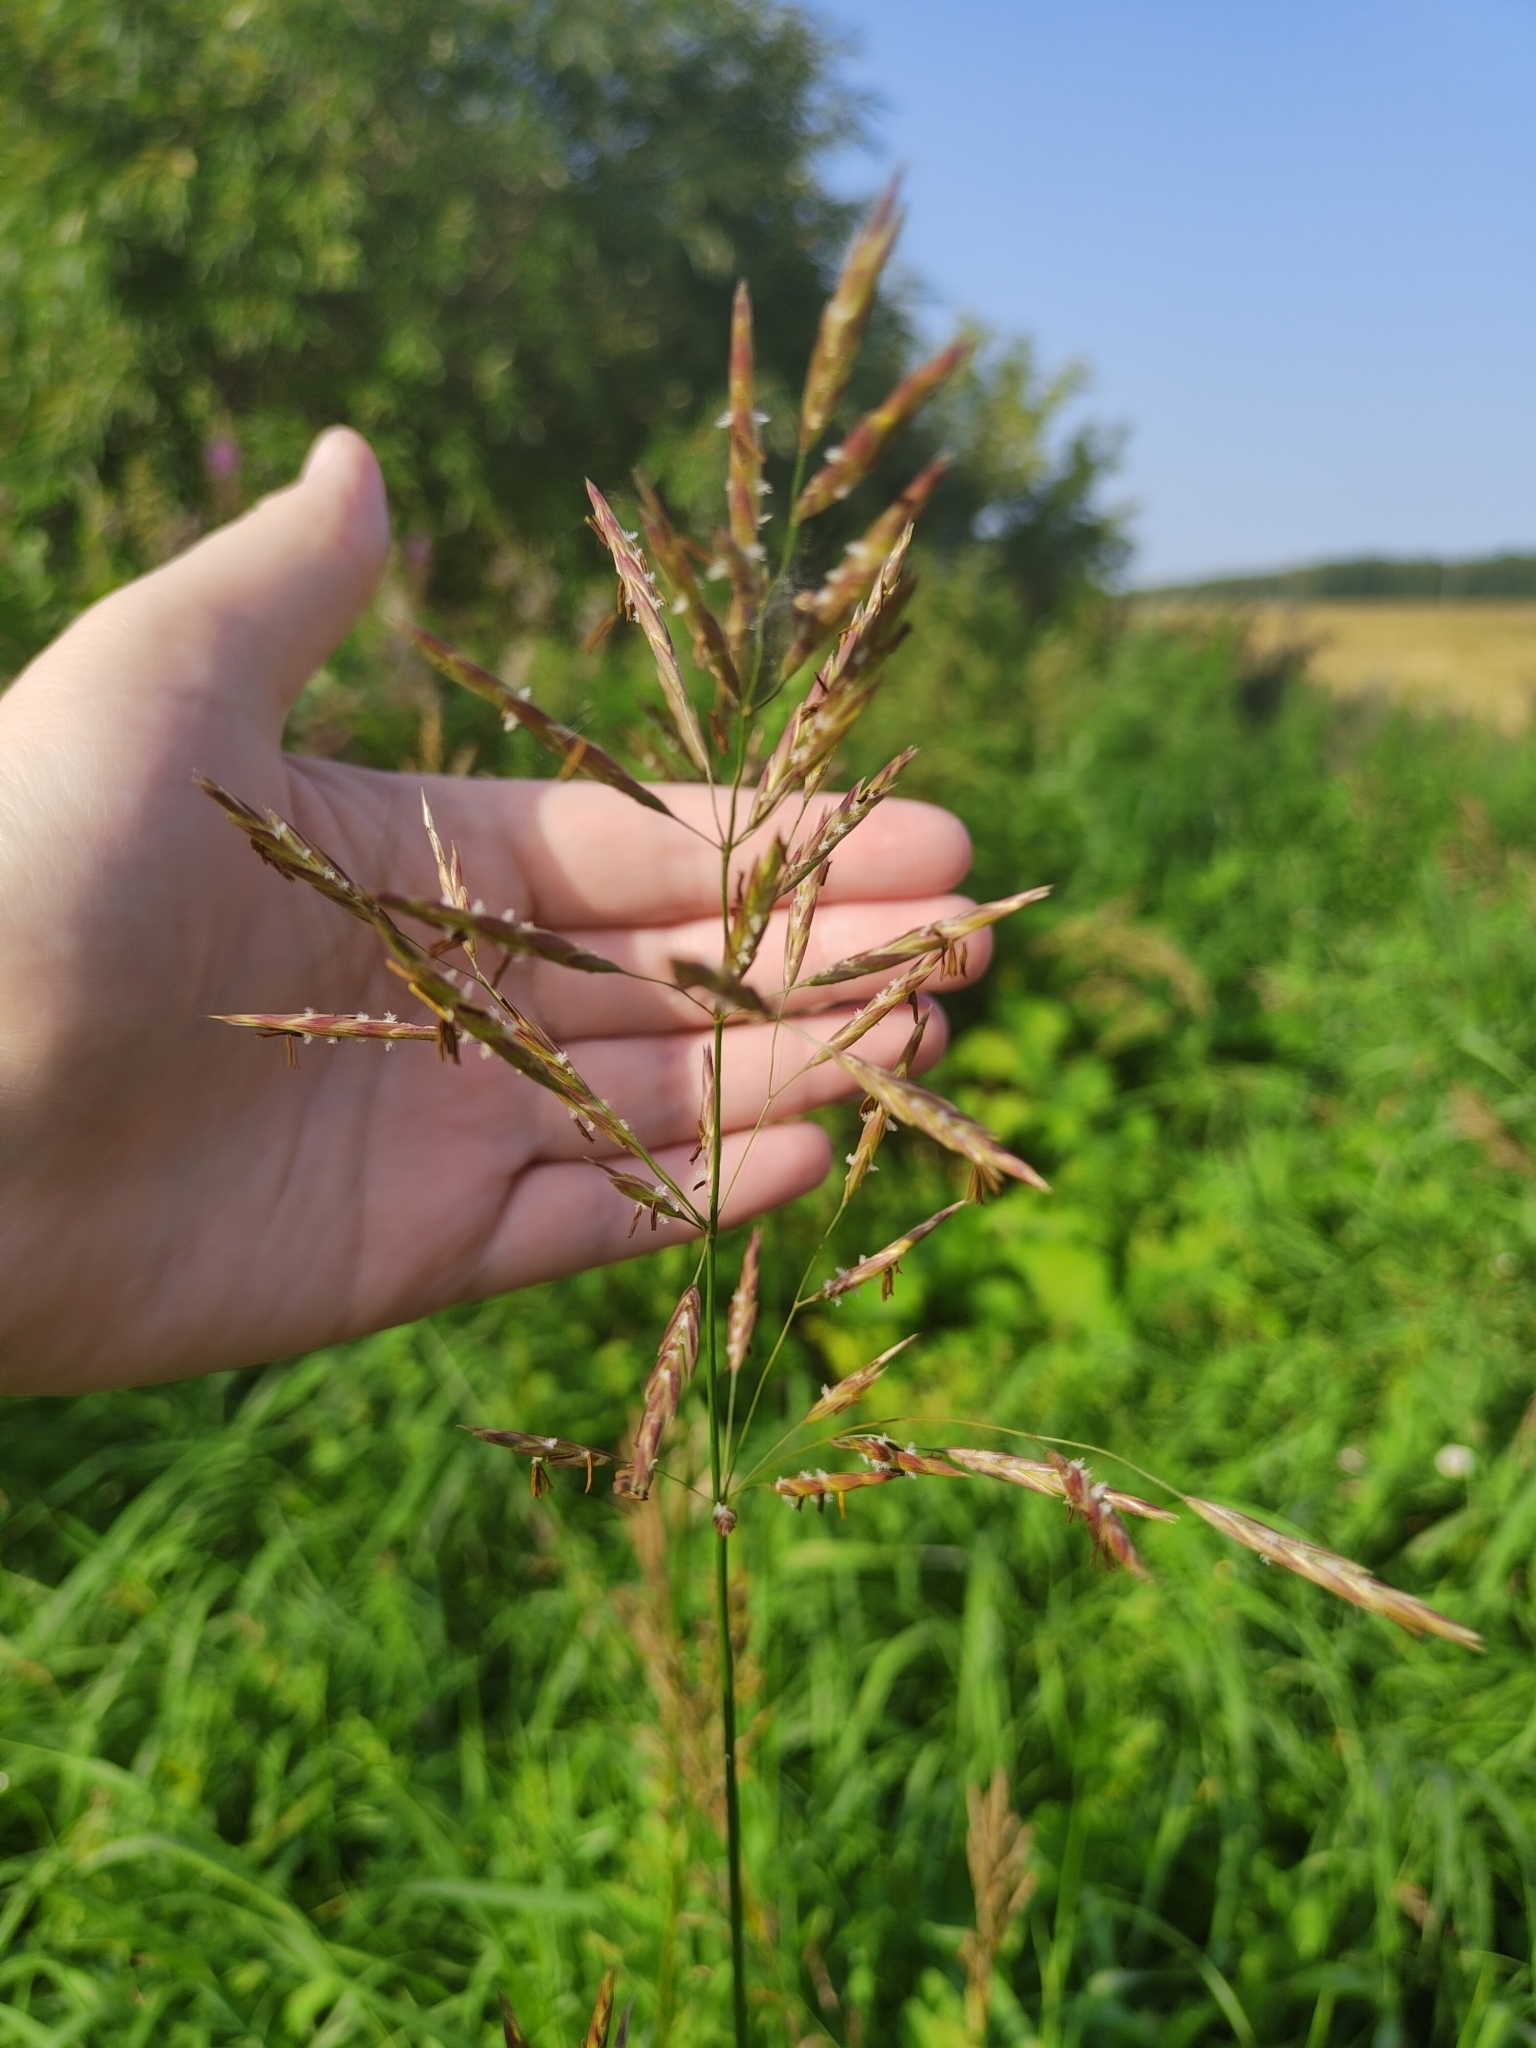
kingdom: Plantae
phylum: Tracheophyta
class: Liliopsida
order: Poales
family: Poaceae
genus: Bromus
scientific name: Bromus inermis
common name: Smooth brome
